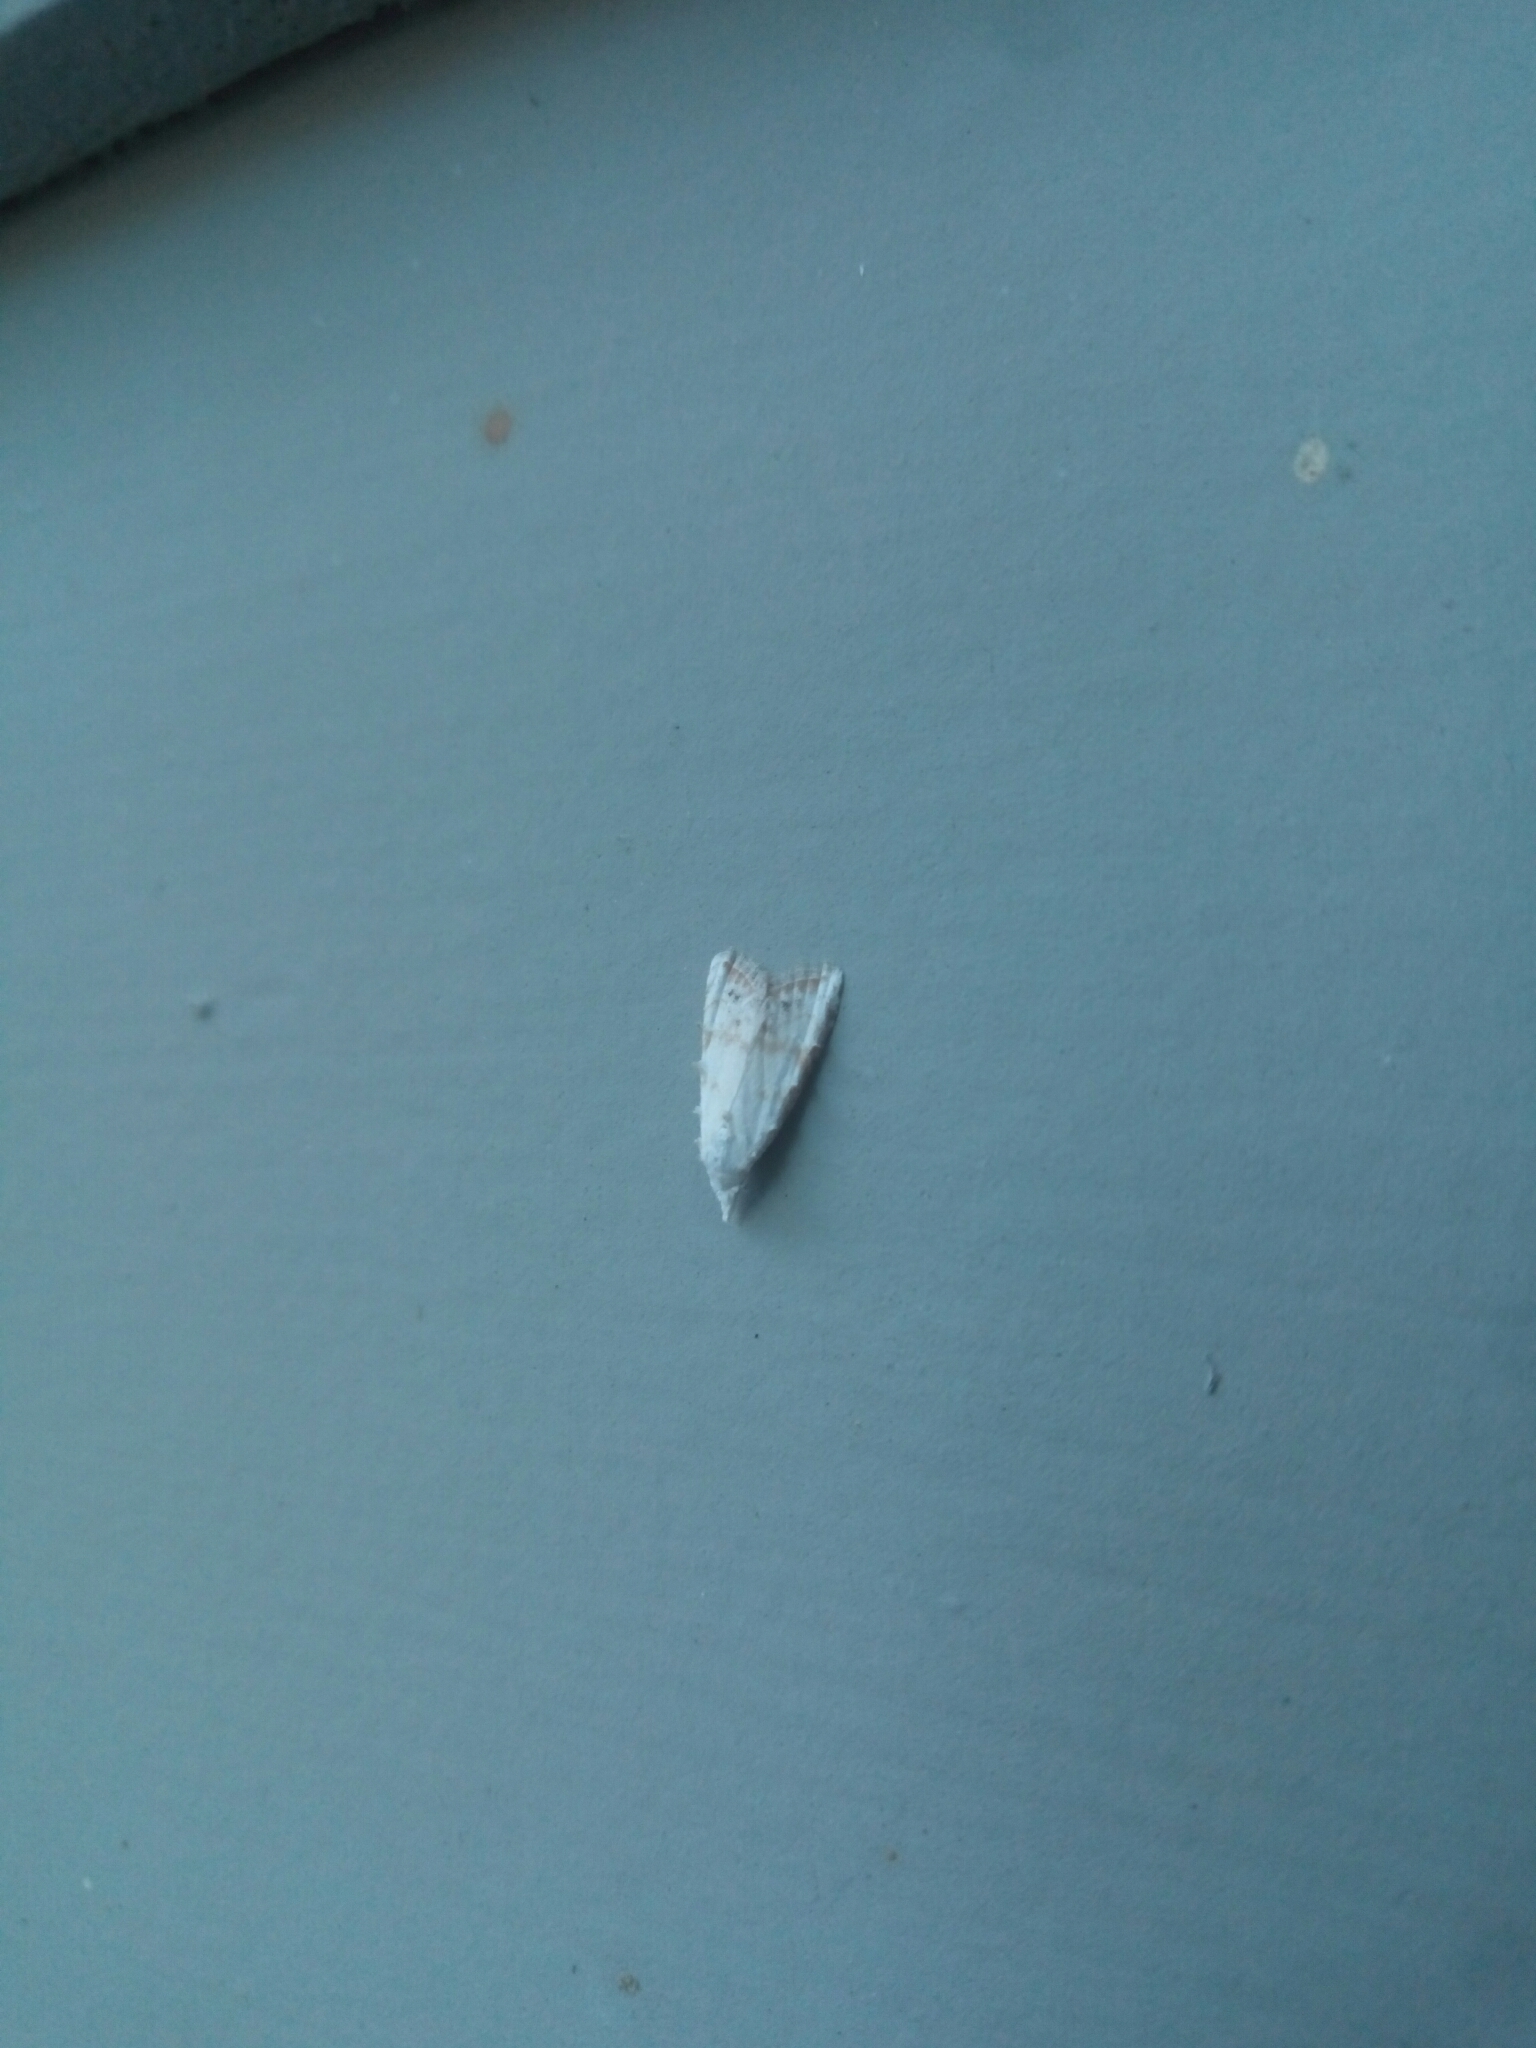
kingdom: Animalia
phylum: Arthropoda
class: Insecta
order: Lepidoptera
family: Nolidae
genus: Nola
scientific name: Nola cereella
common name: Sorghum webworm moth
